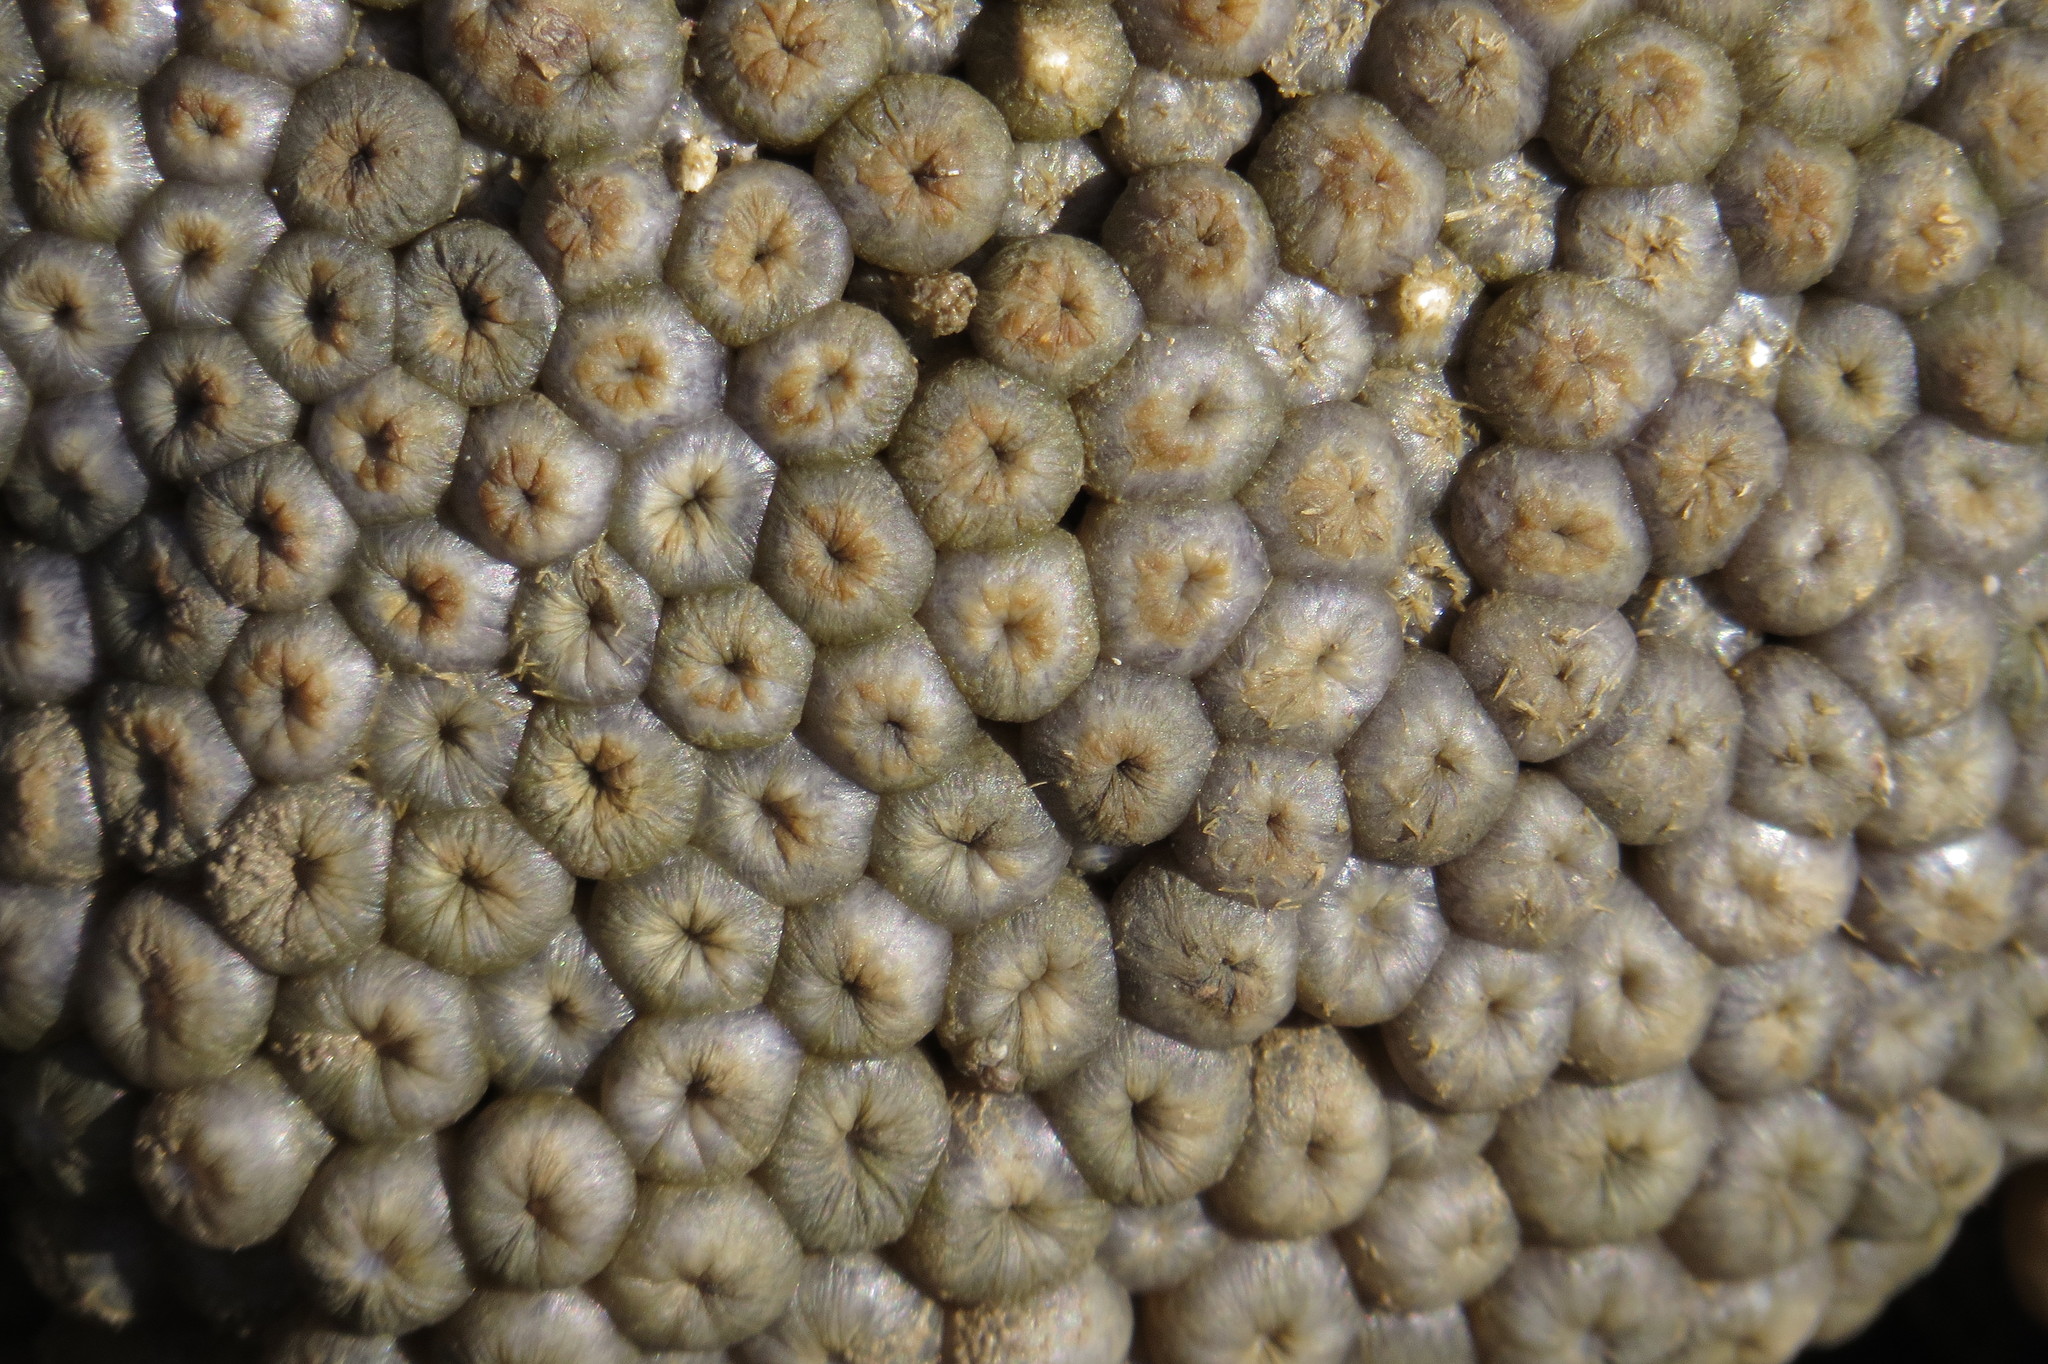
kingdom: Animalia
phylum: Cnidaria
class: Anthozoa
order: Zoantharia
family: Sphenopidae
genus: Palythoa
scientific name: Palythoa mutuki
